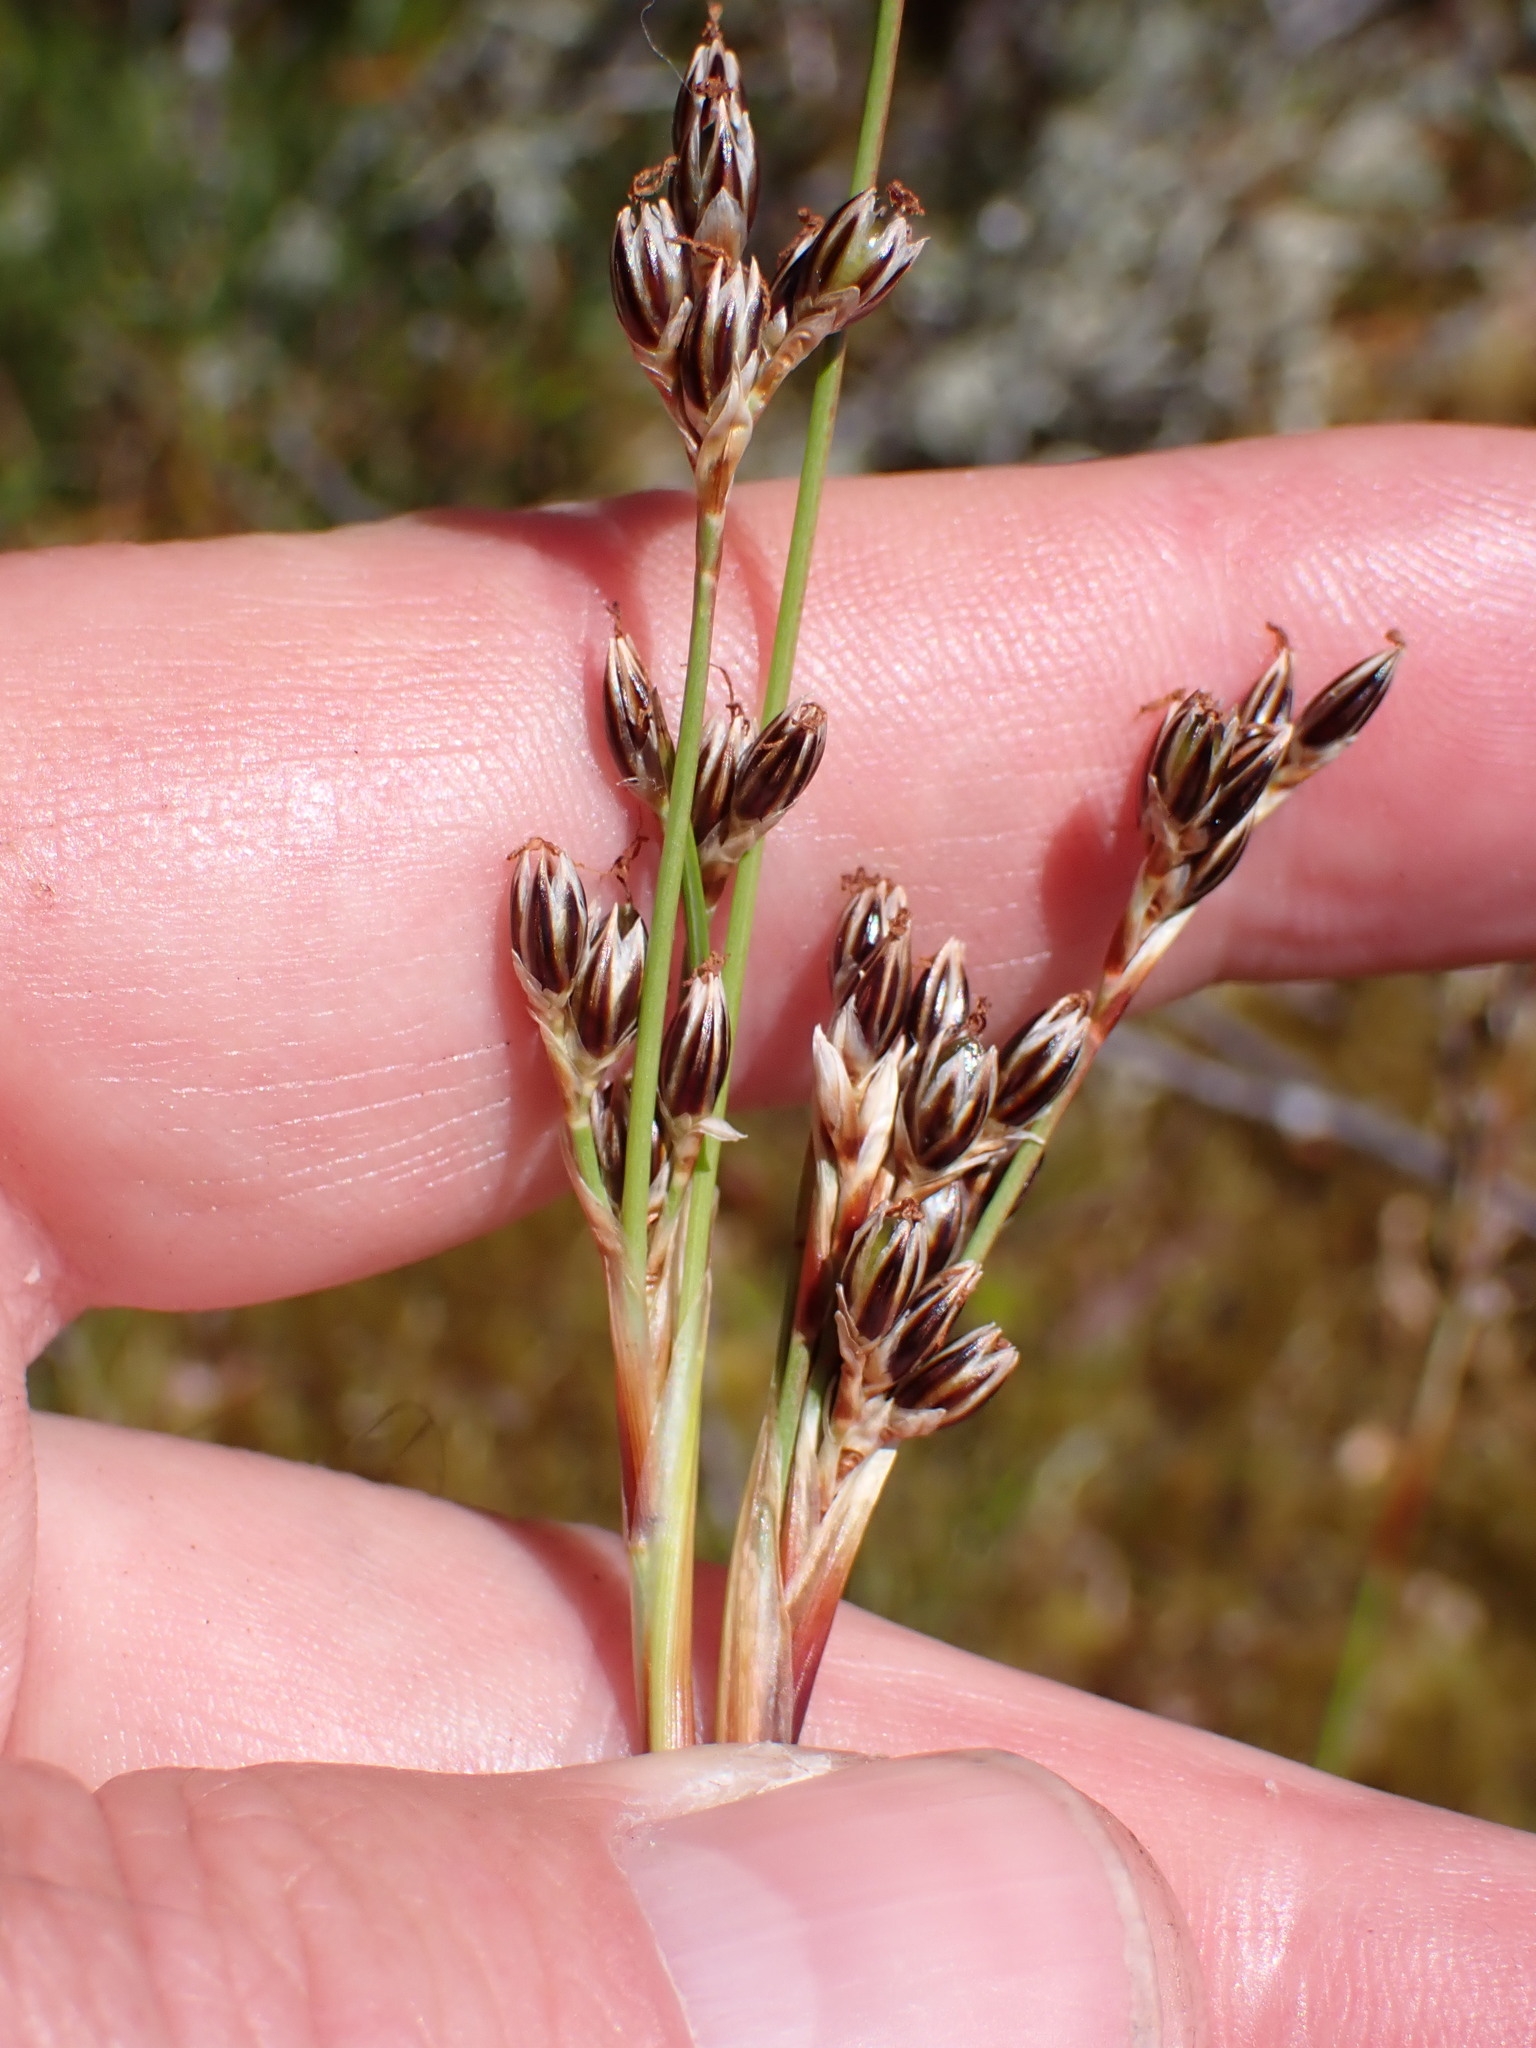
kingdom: Plantae
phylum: Tracheophyta
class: Liliopsida
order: Poales
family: Juncaceae
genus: Juncus
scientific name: Juncus squarrosus
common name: Heath rush
